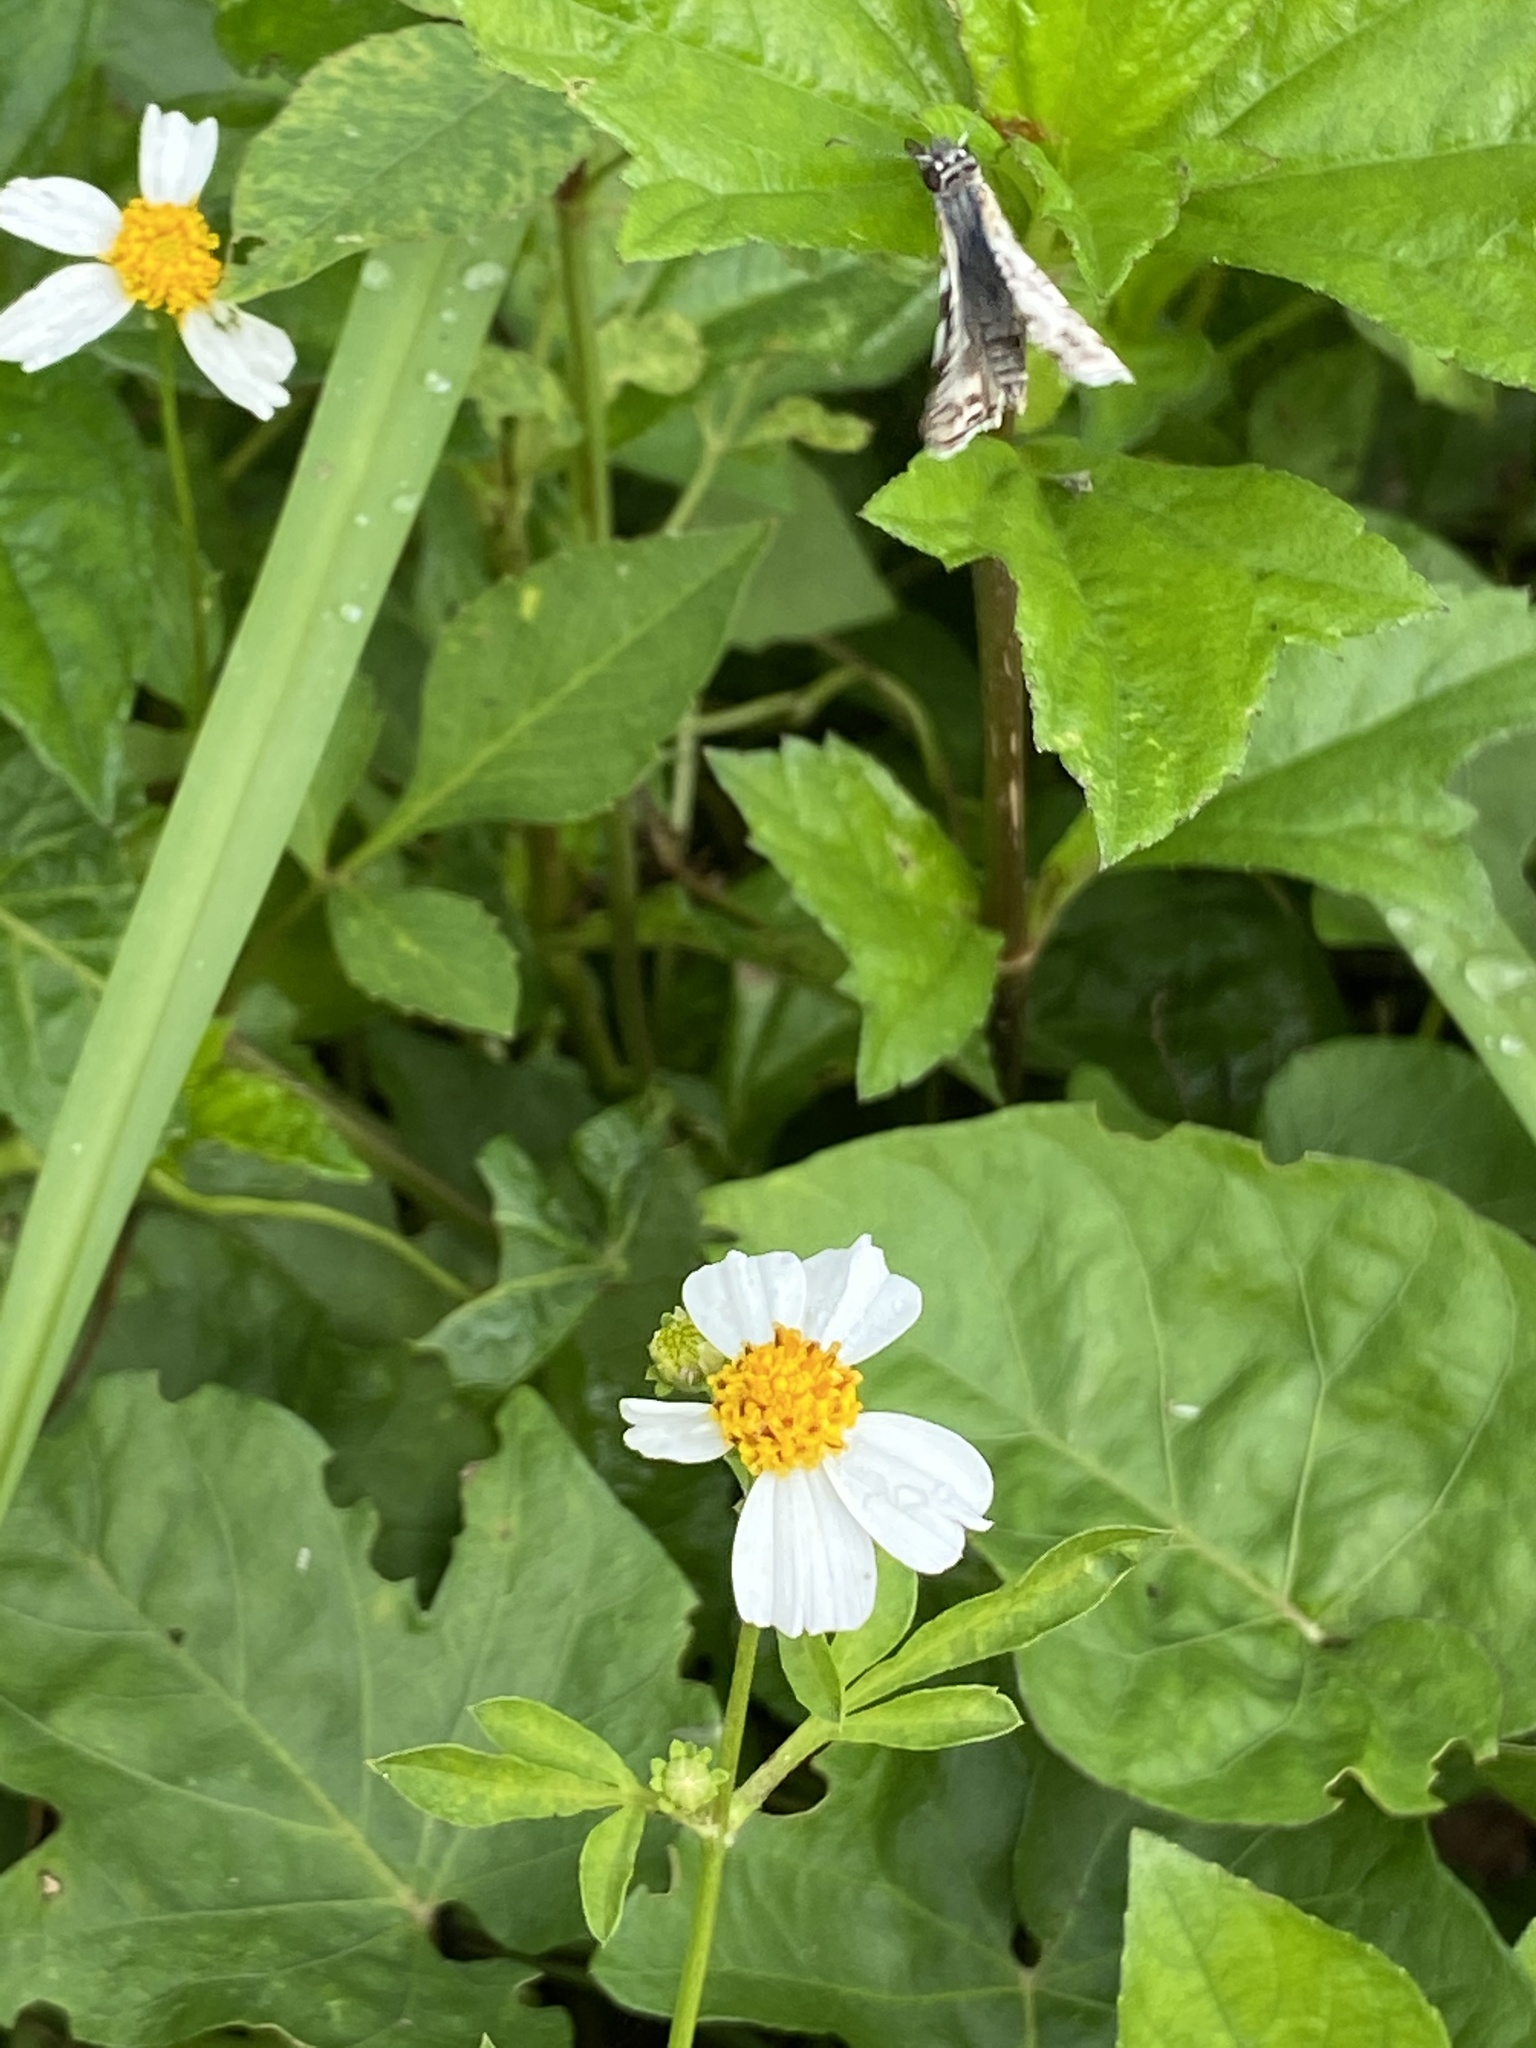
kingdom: Animalia
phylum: Arthropoda
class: Insecta
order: Lepidoptera
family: Hesperiidae
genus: Pyrgus
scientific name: Pyrgus oileus
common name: Tropical checkered-skipper
